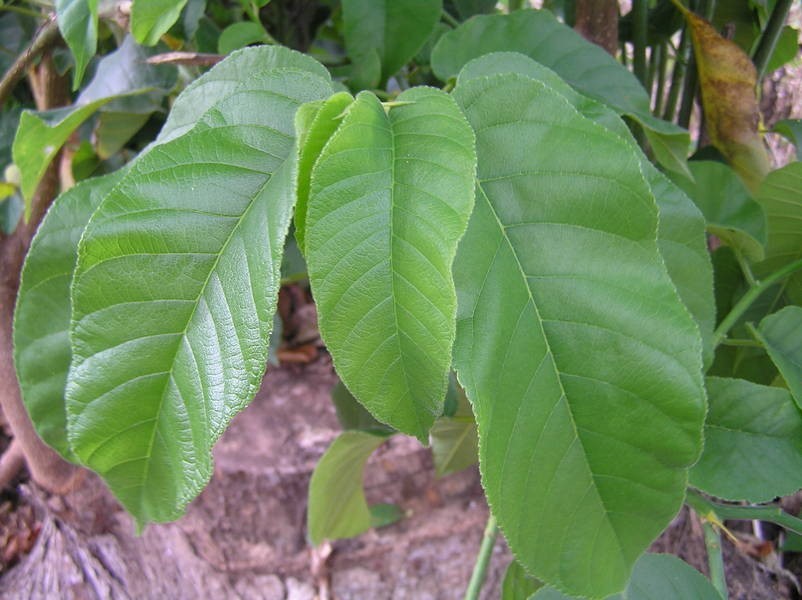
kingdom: Plantae
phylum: Tracheophyta
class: Magnoliopsida
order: Rosales
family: Moraceae
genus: Milicia
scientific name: Milicia excelsa
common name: African teak
